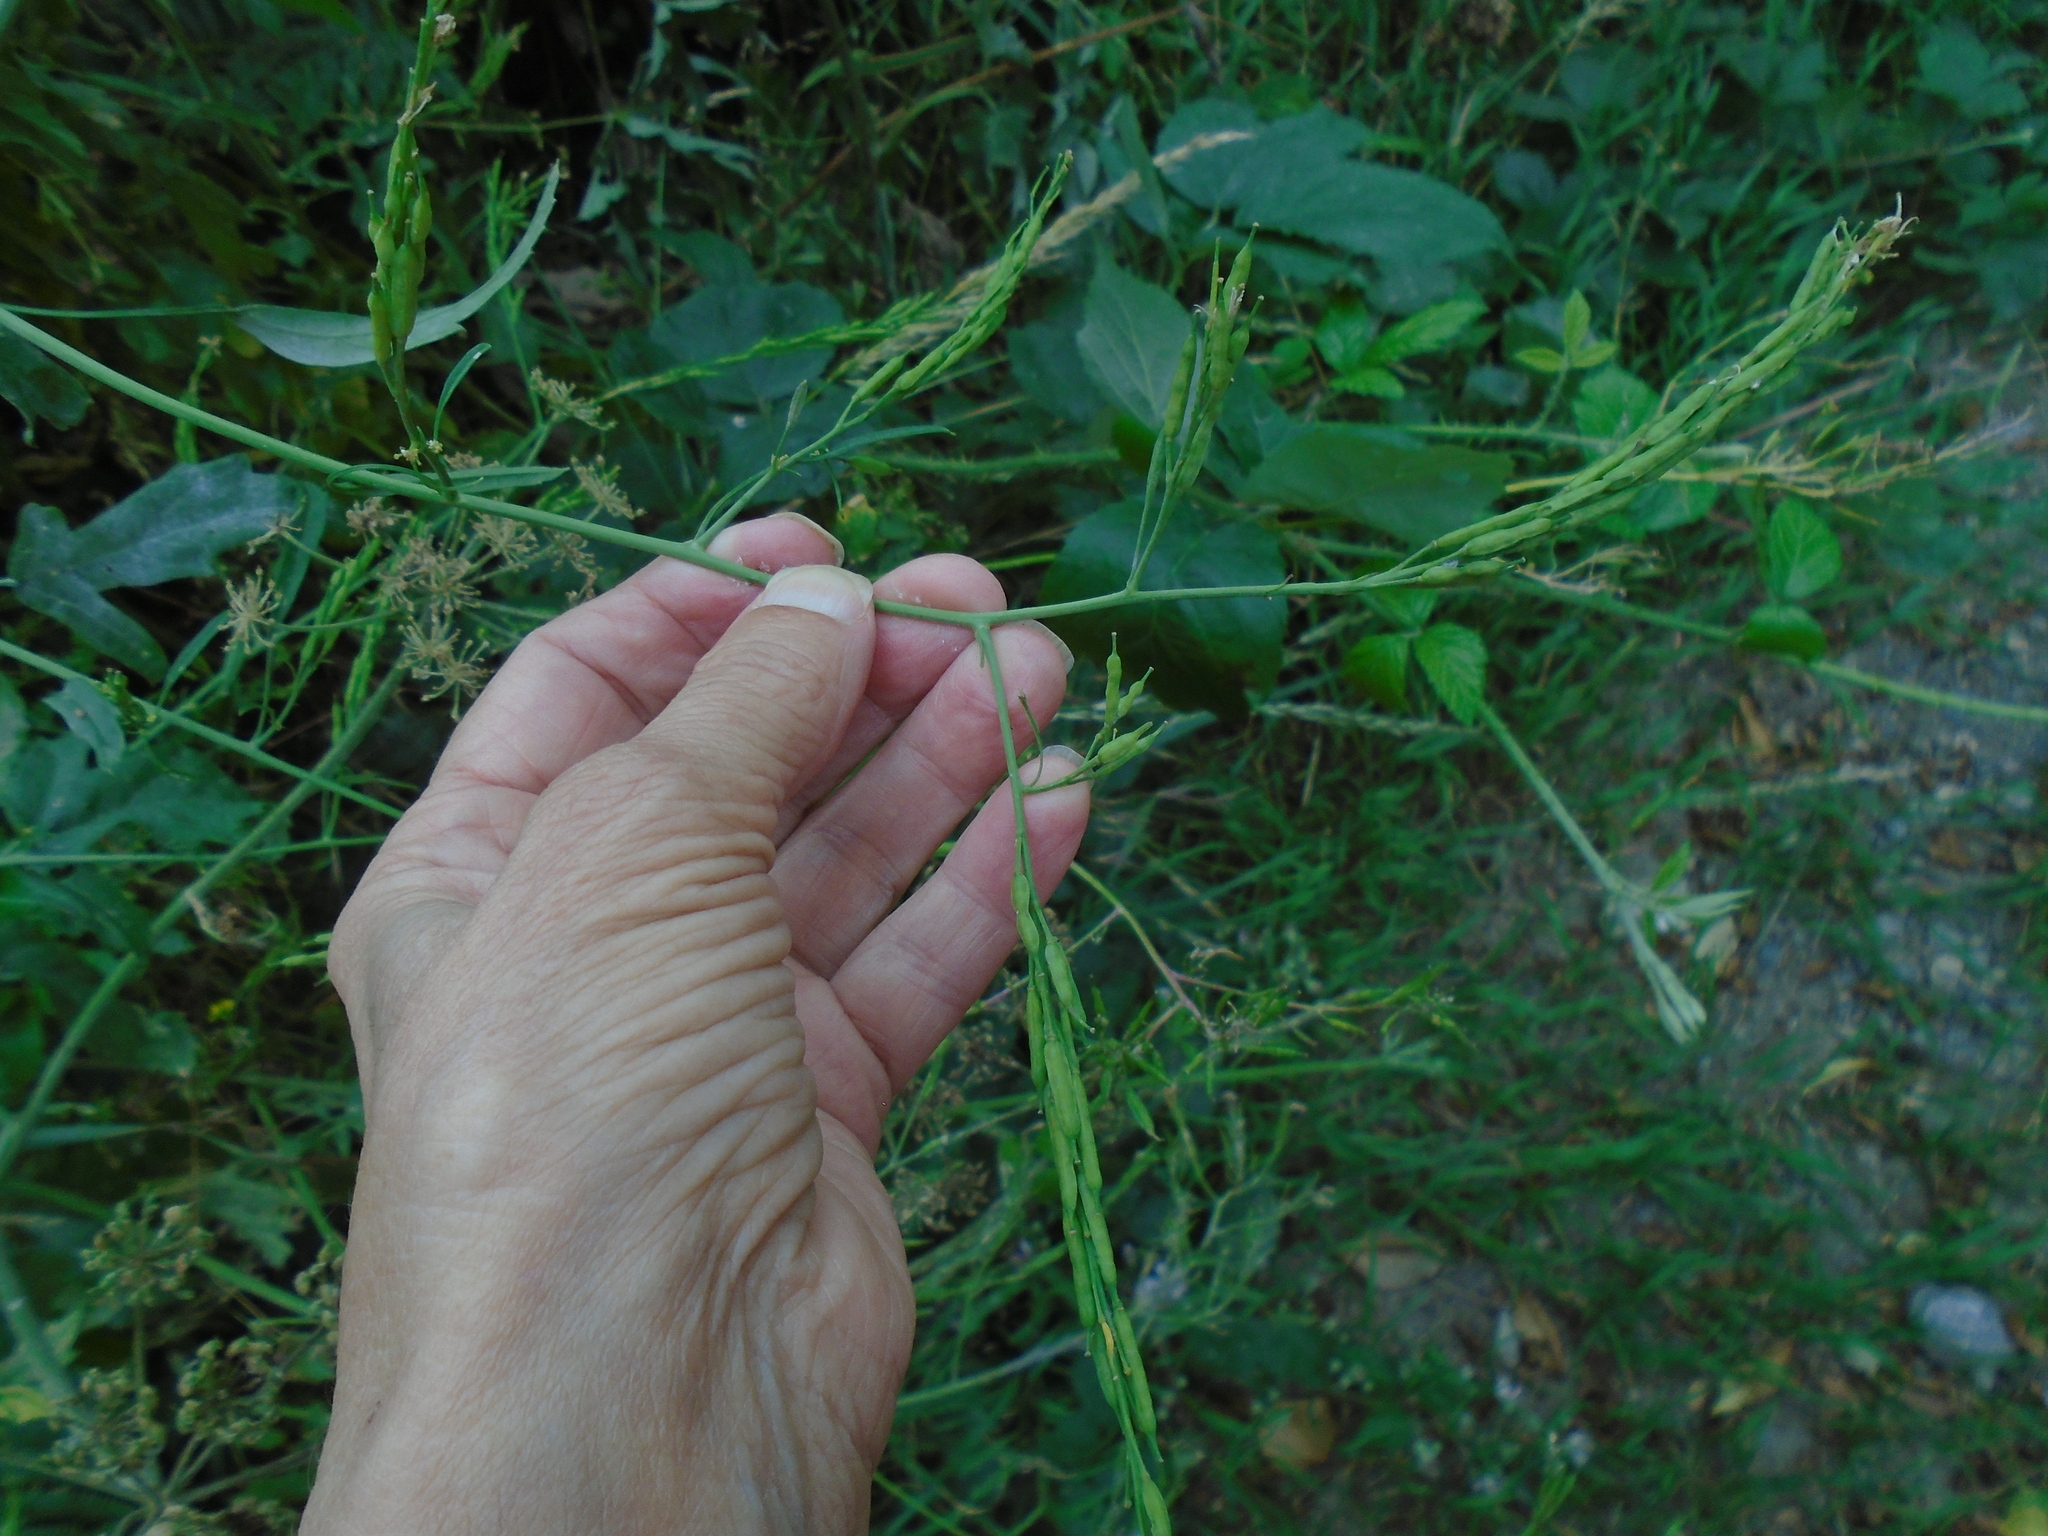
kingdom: Plantae
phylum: Tracheophyta
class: Magnoliopsida
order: Brassicales
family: Brassicaceae
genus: Brassica
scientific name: Brassica nigra
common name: Black mustard
